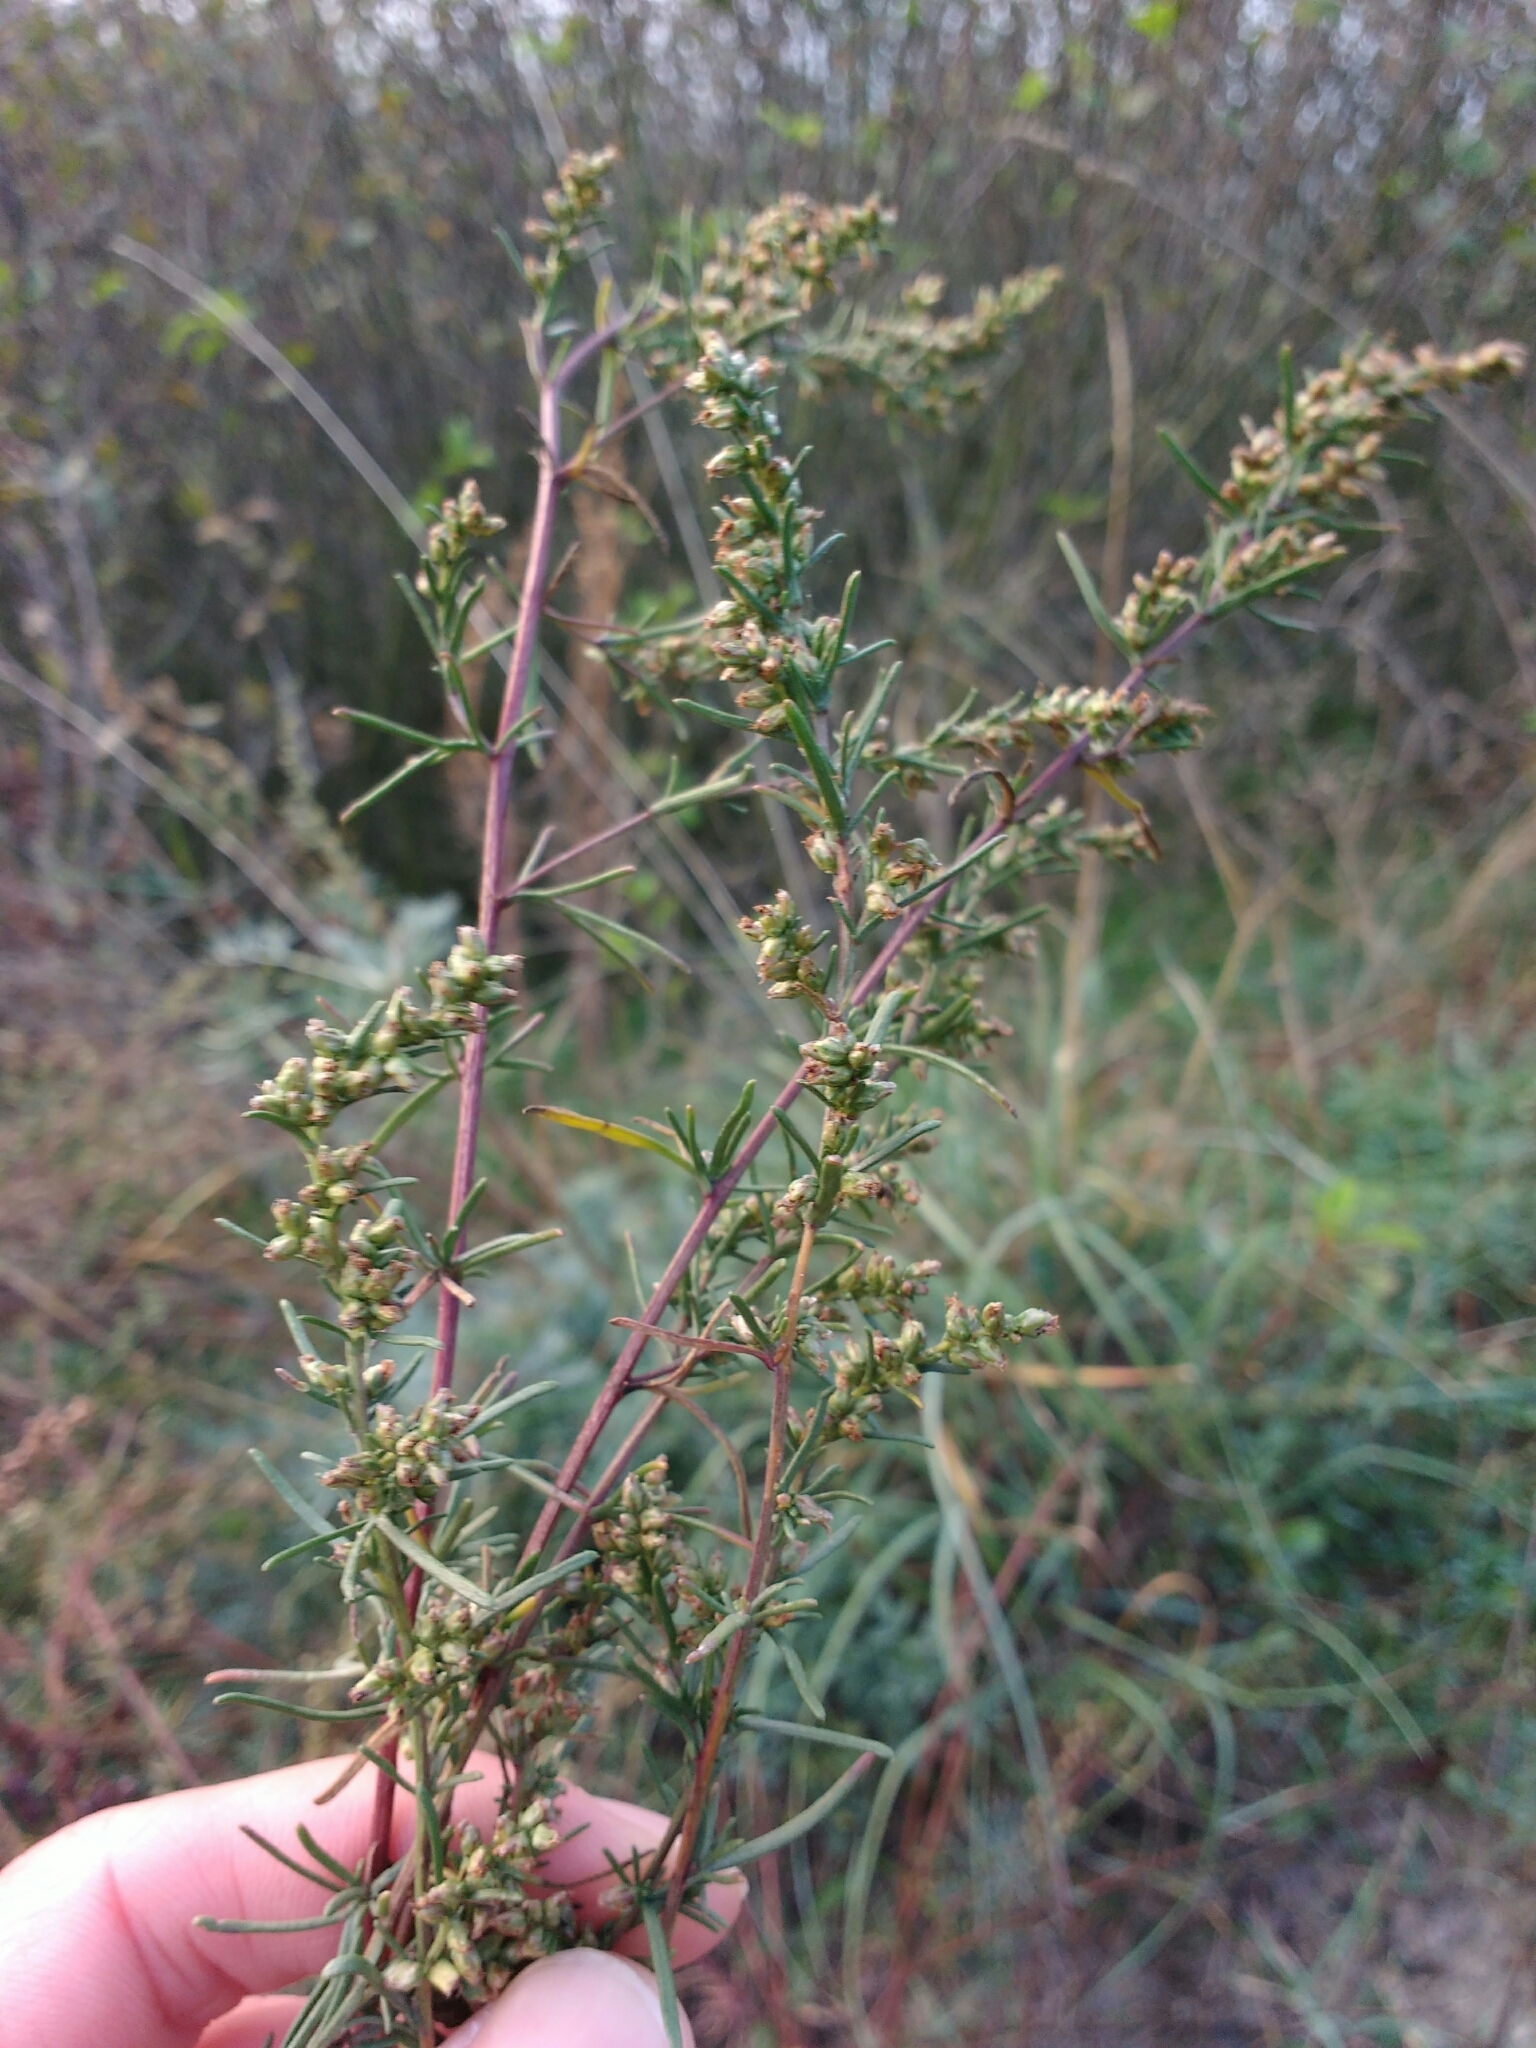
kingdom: Plantae
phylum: Tracheophyta
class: Magnoliopsida
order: Asterales
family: Asteraceae
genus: Artemisia
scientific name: Artemisia campestris
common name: Field wormwood
